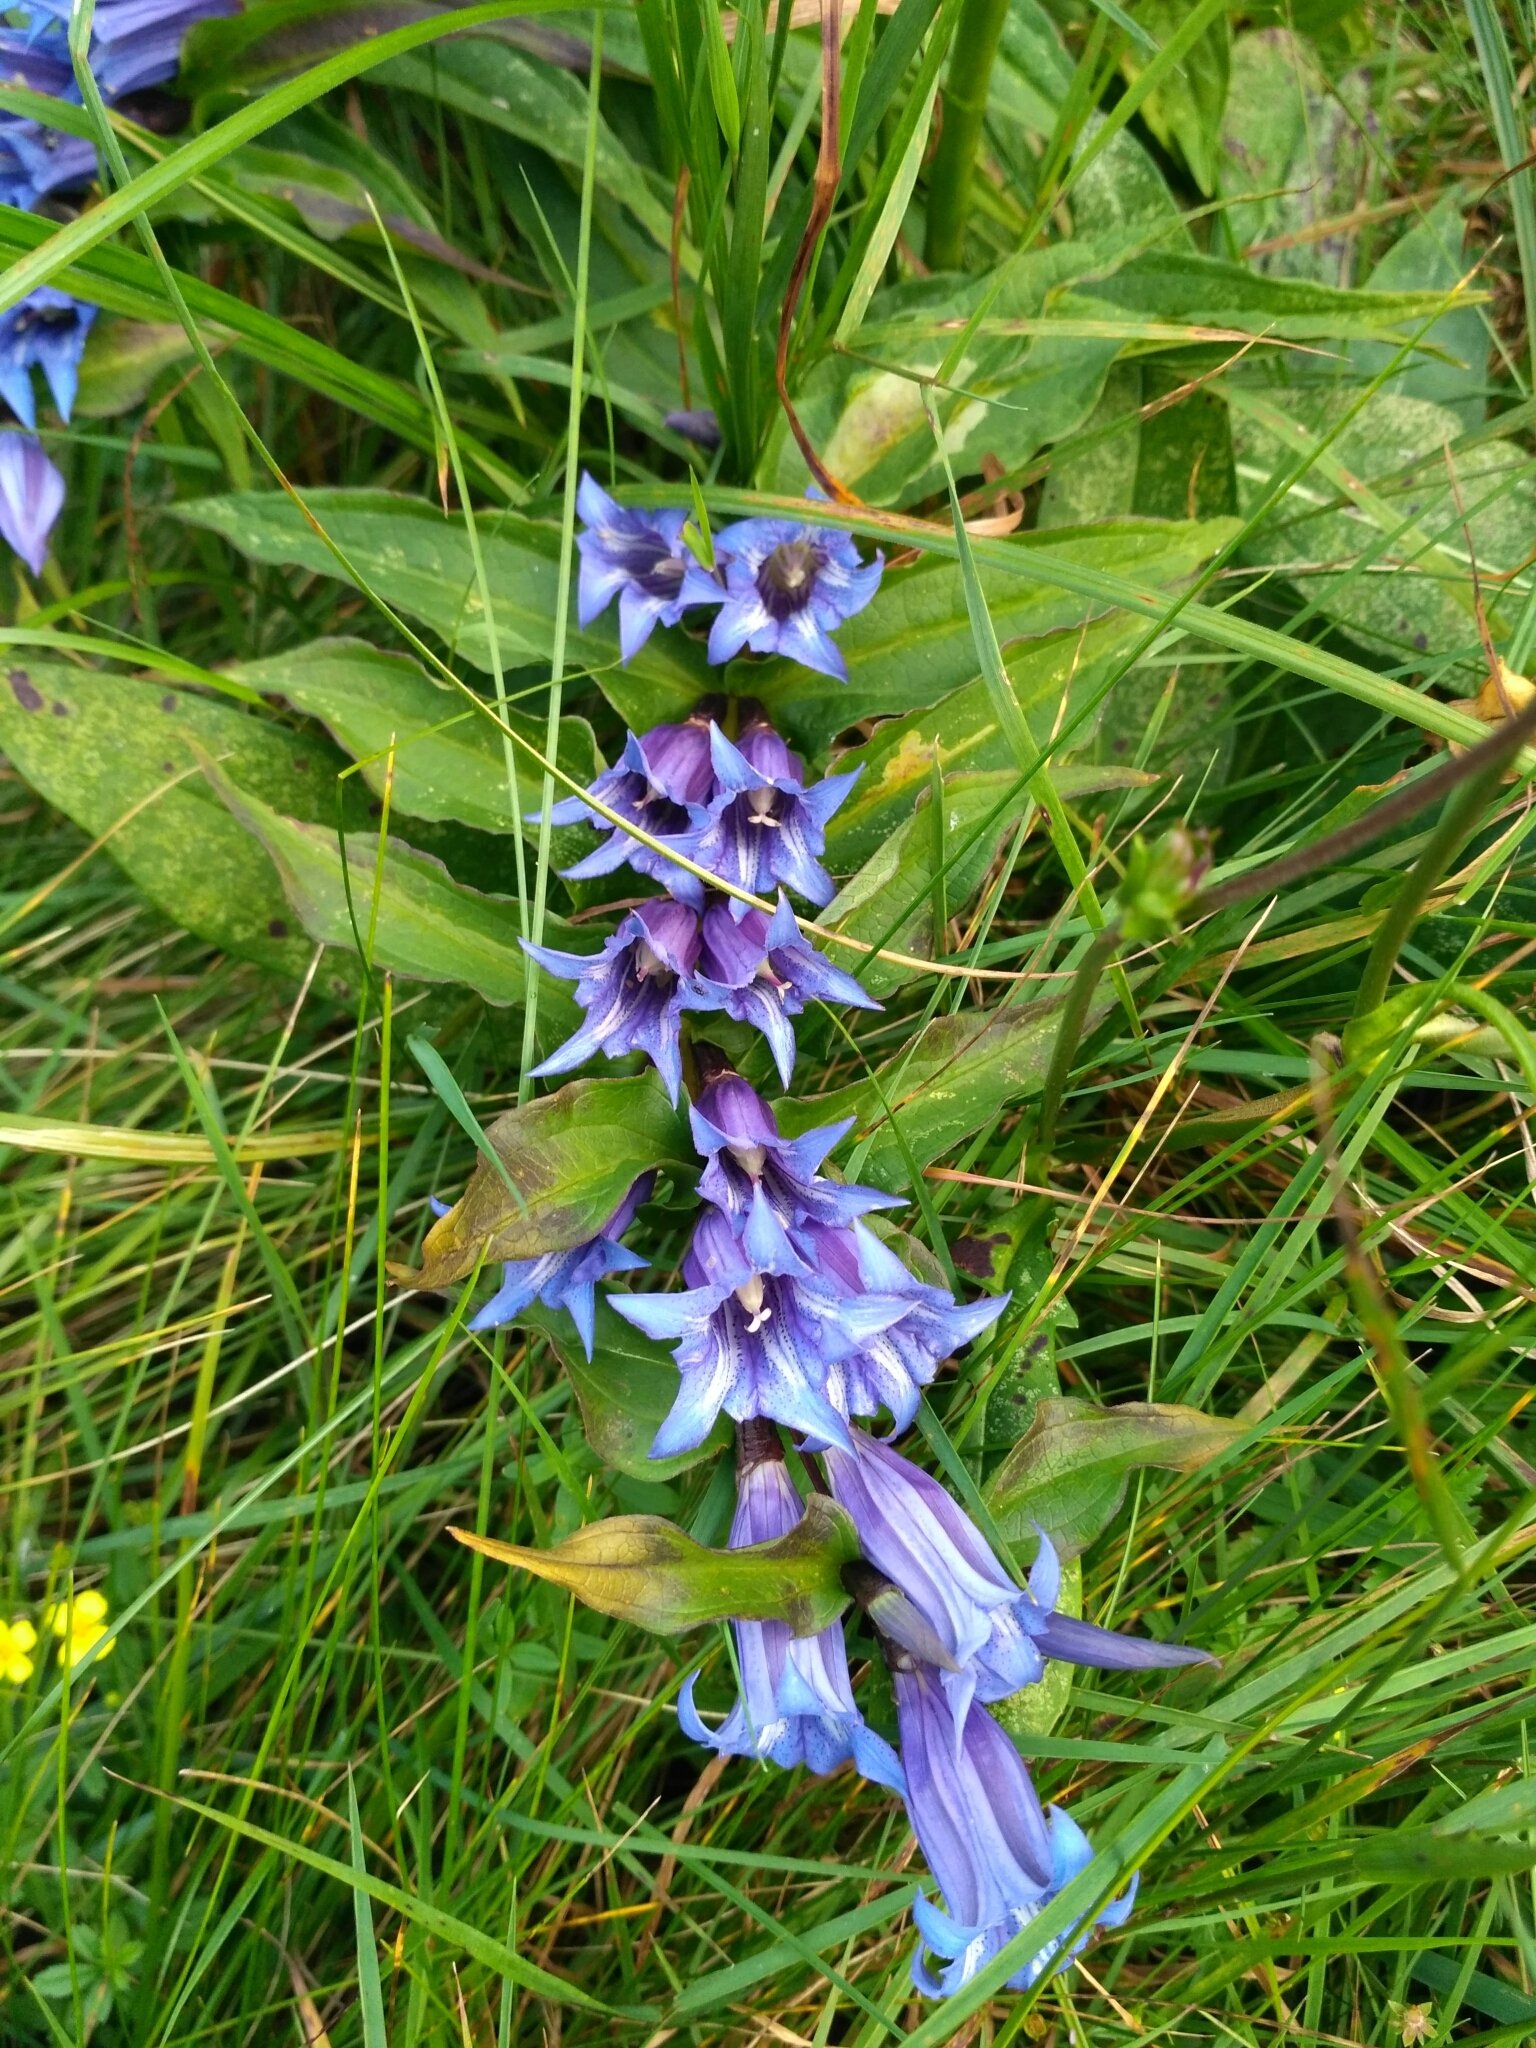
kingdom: Plantae
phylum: Tracheophyta
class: Magnoliopsida
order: Gentianales
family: Gentianaceae
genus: Gentiana
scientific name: Gentiana asclepiadea
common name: Willow gentian
